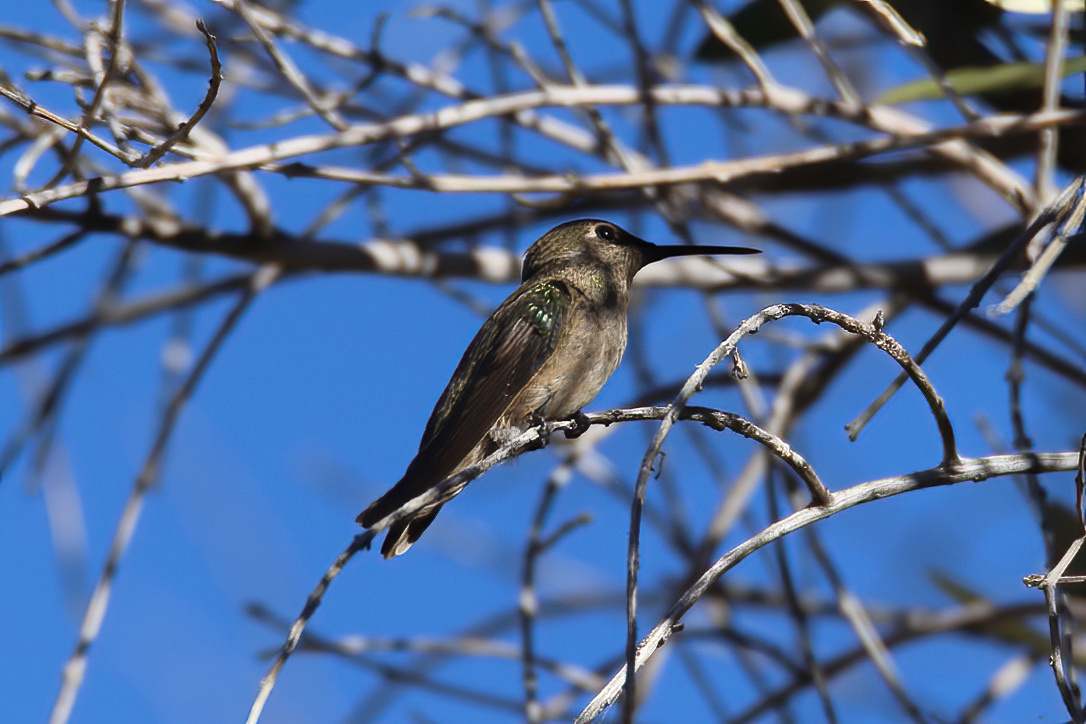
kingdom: Animalia
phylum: Chordata
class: Aves
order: Apodiformes
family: Trochilidae
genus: Calypte
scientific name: Calypte anna
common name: Anna's hummingbird
